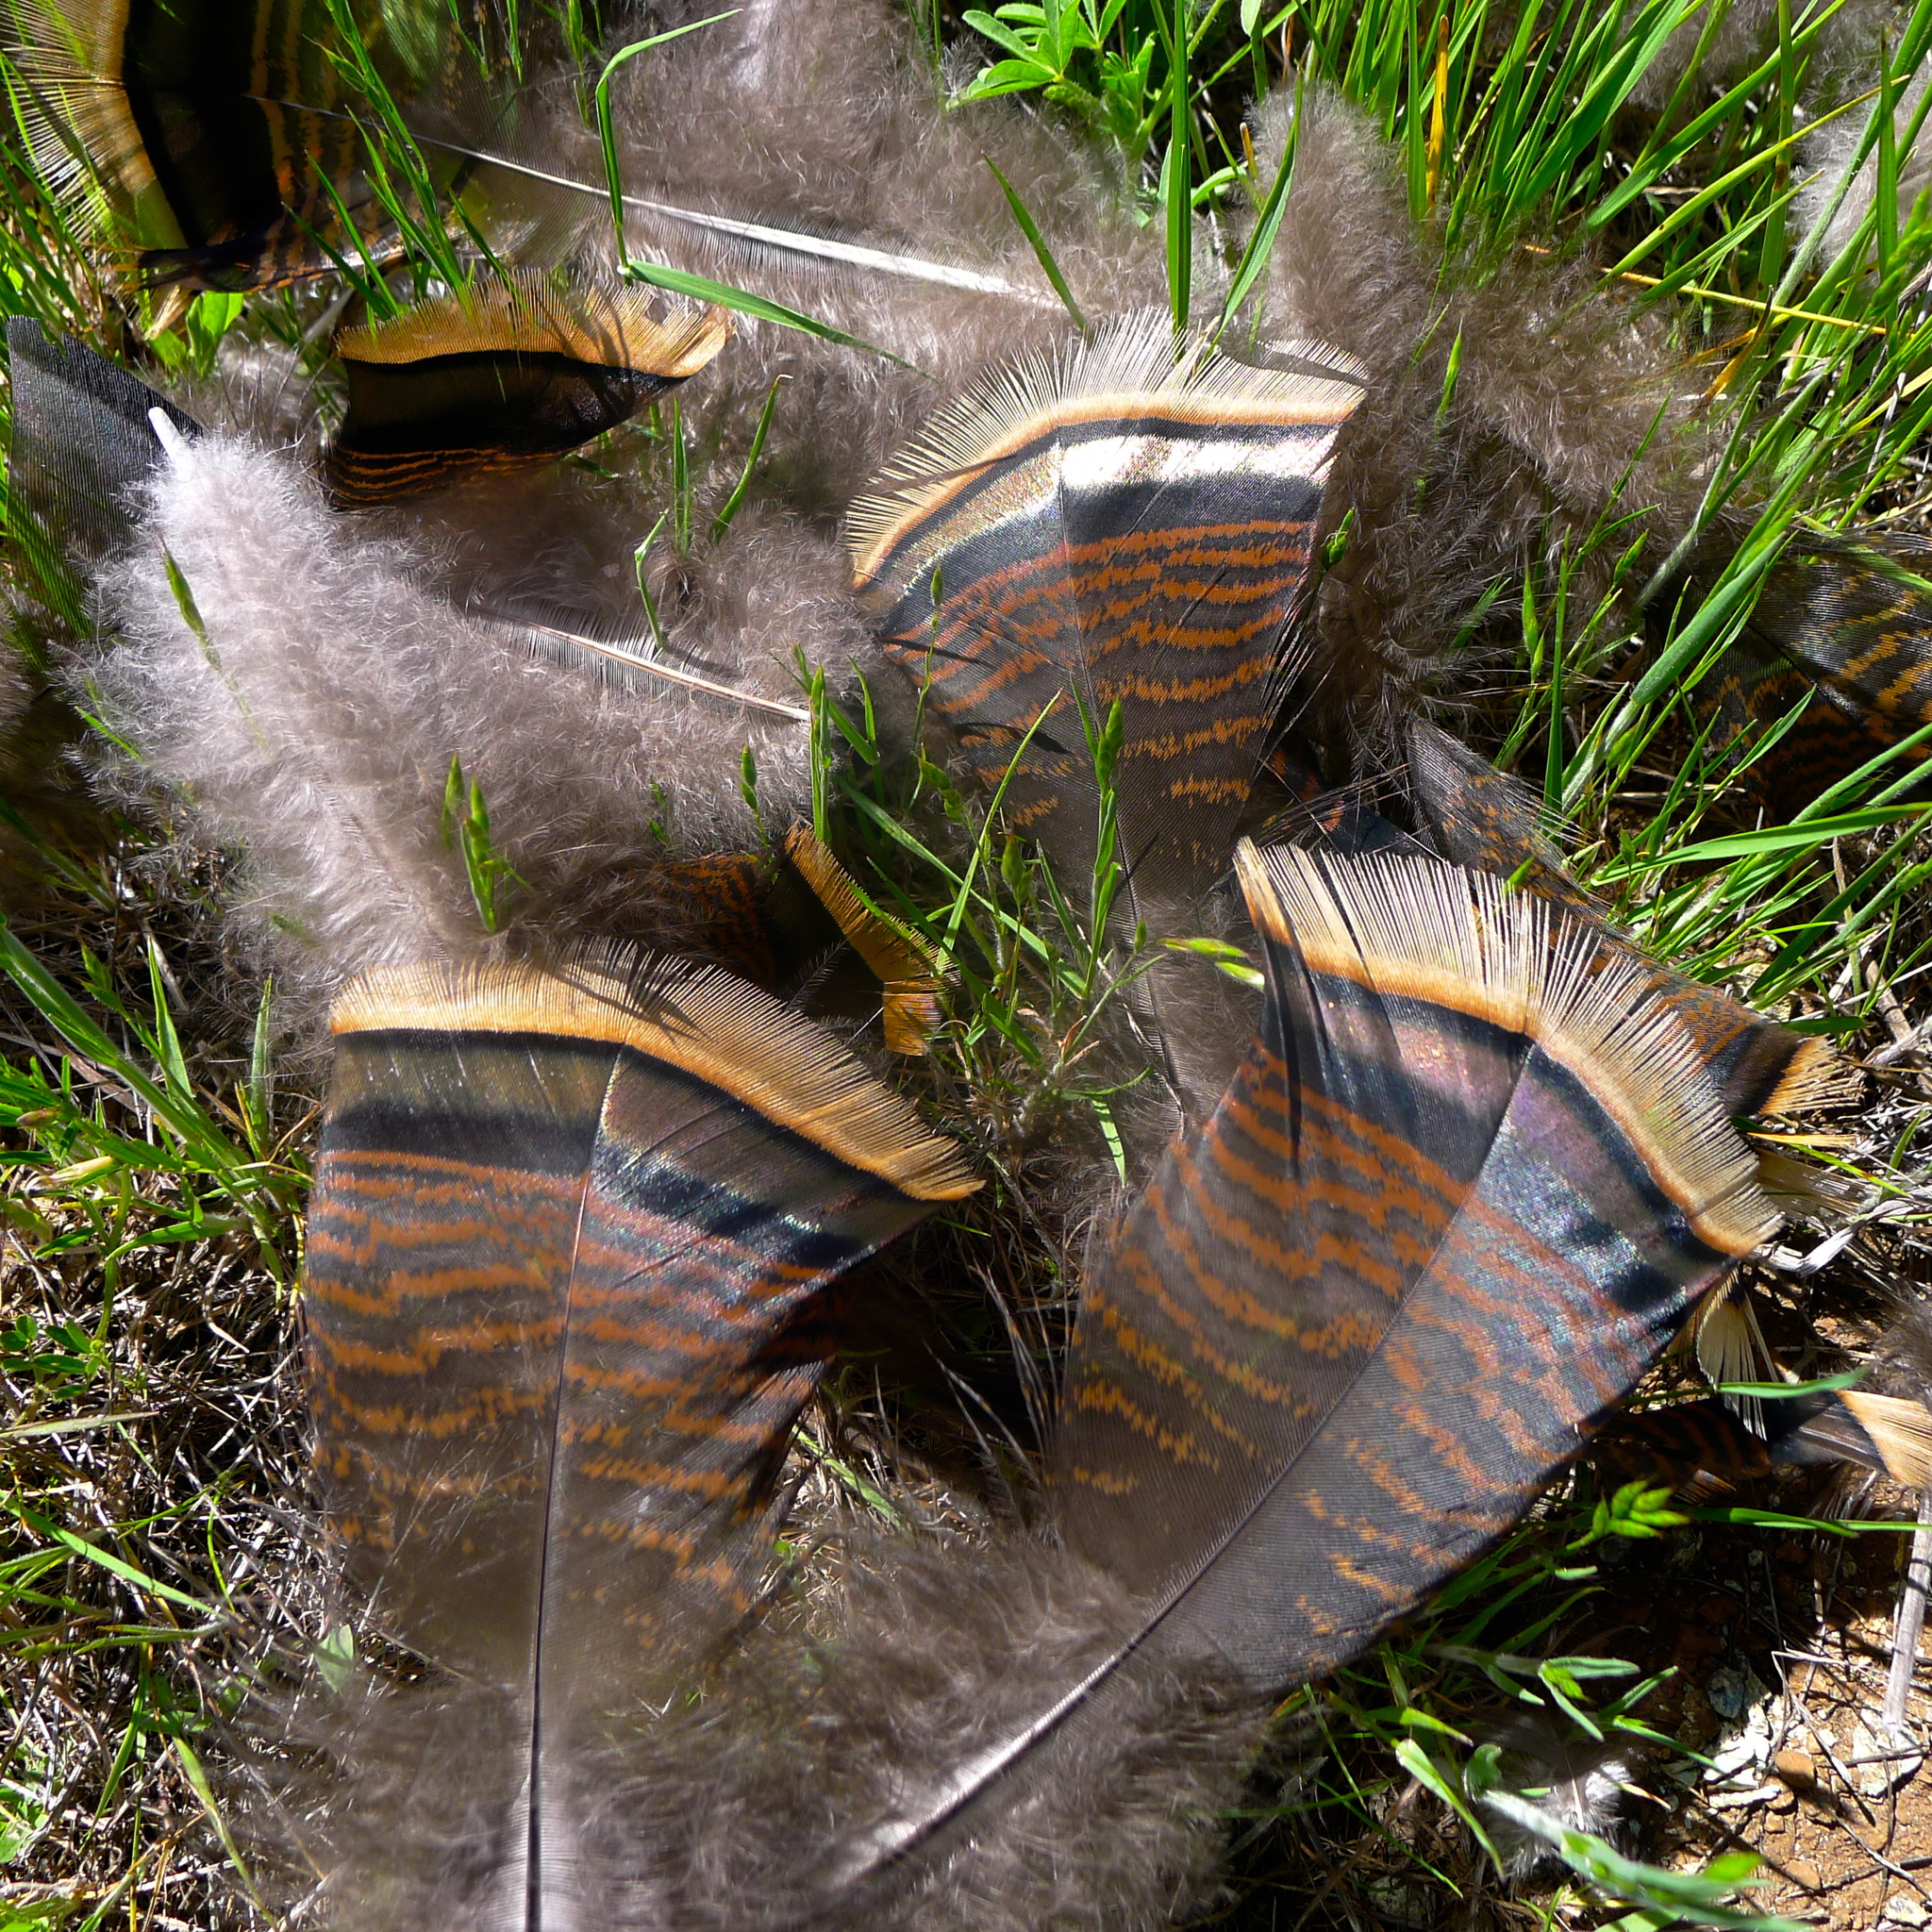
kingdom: Animalia
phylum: Chordata
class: Aves
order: Galliformes
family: Phasianidae
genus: Meleagris
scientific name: Meleagris gallopavo
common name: Wild turkey
